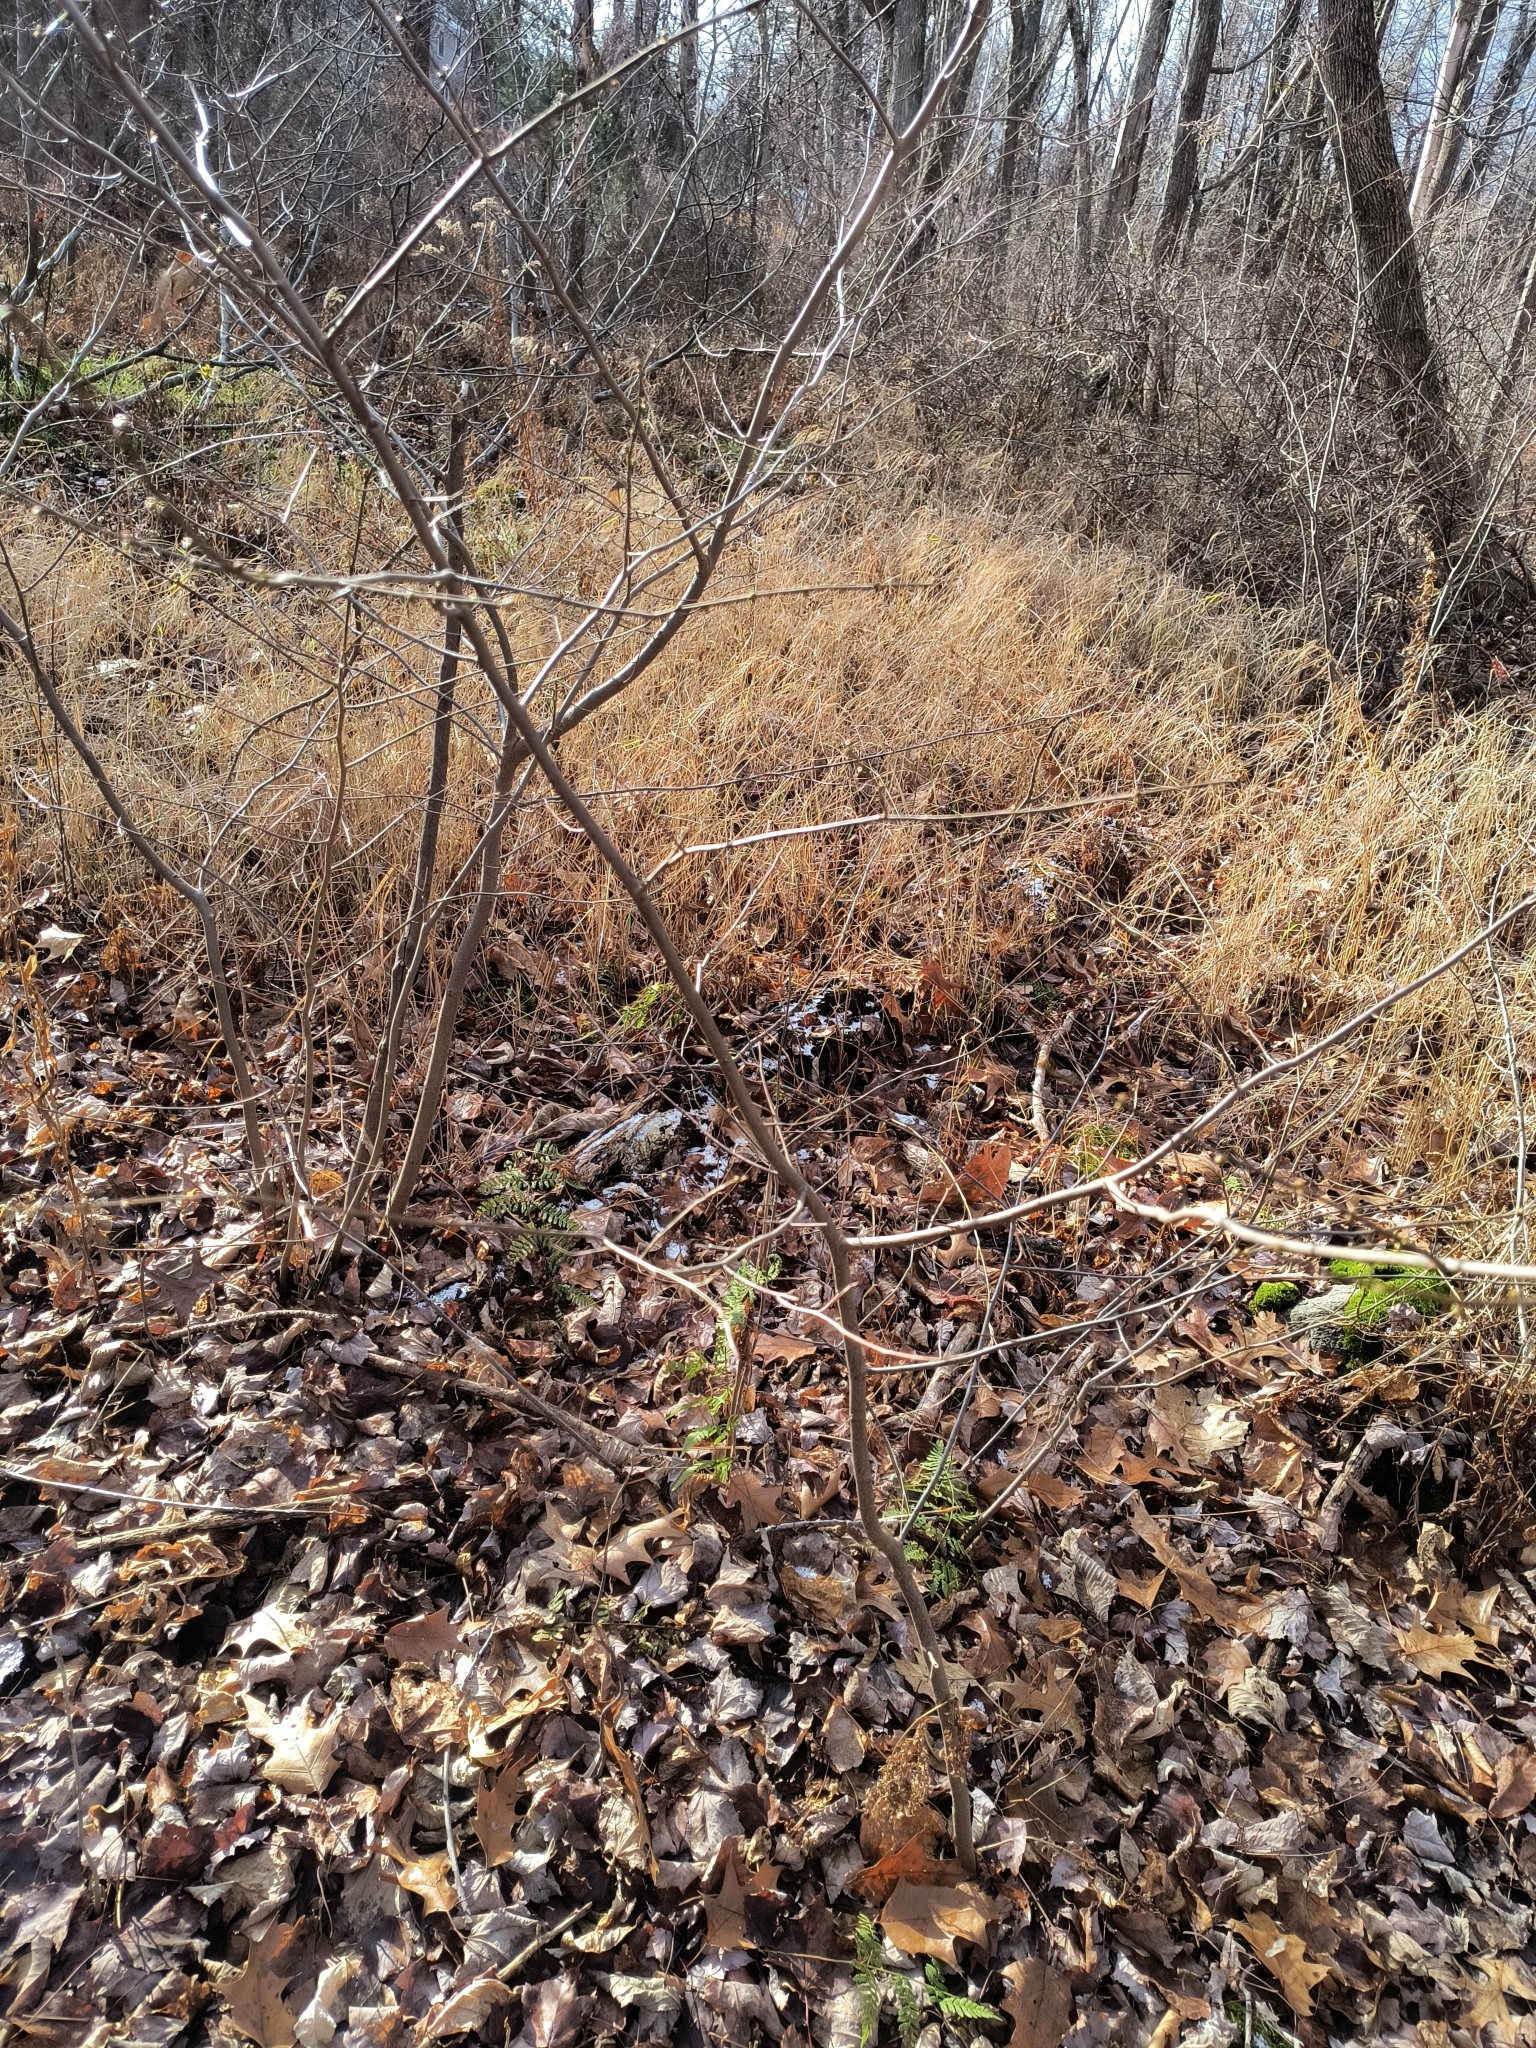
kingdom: Plantae
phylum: Tracheophyta
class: Magnoliopsida
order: Laurales
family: Lauraceae
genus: Lindera
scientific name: Lindera benzoin
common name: Spicebush
